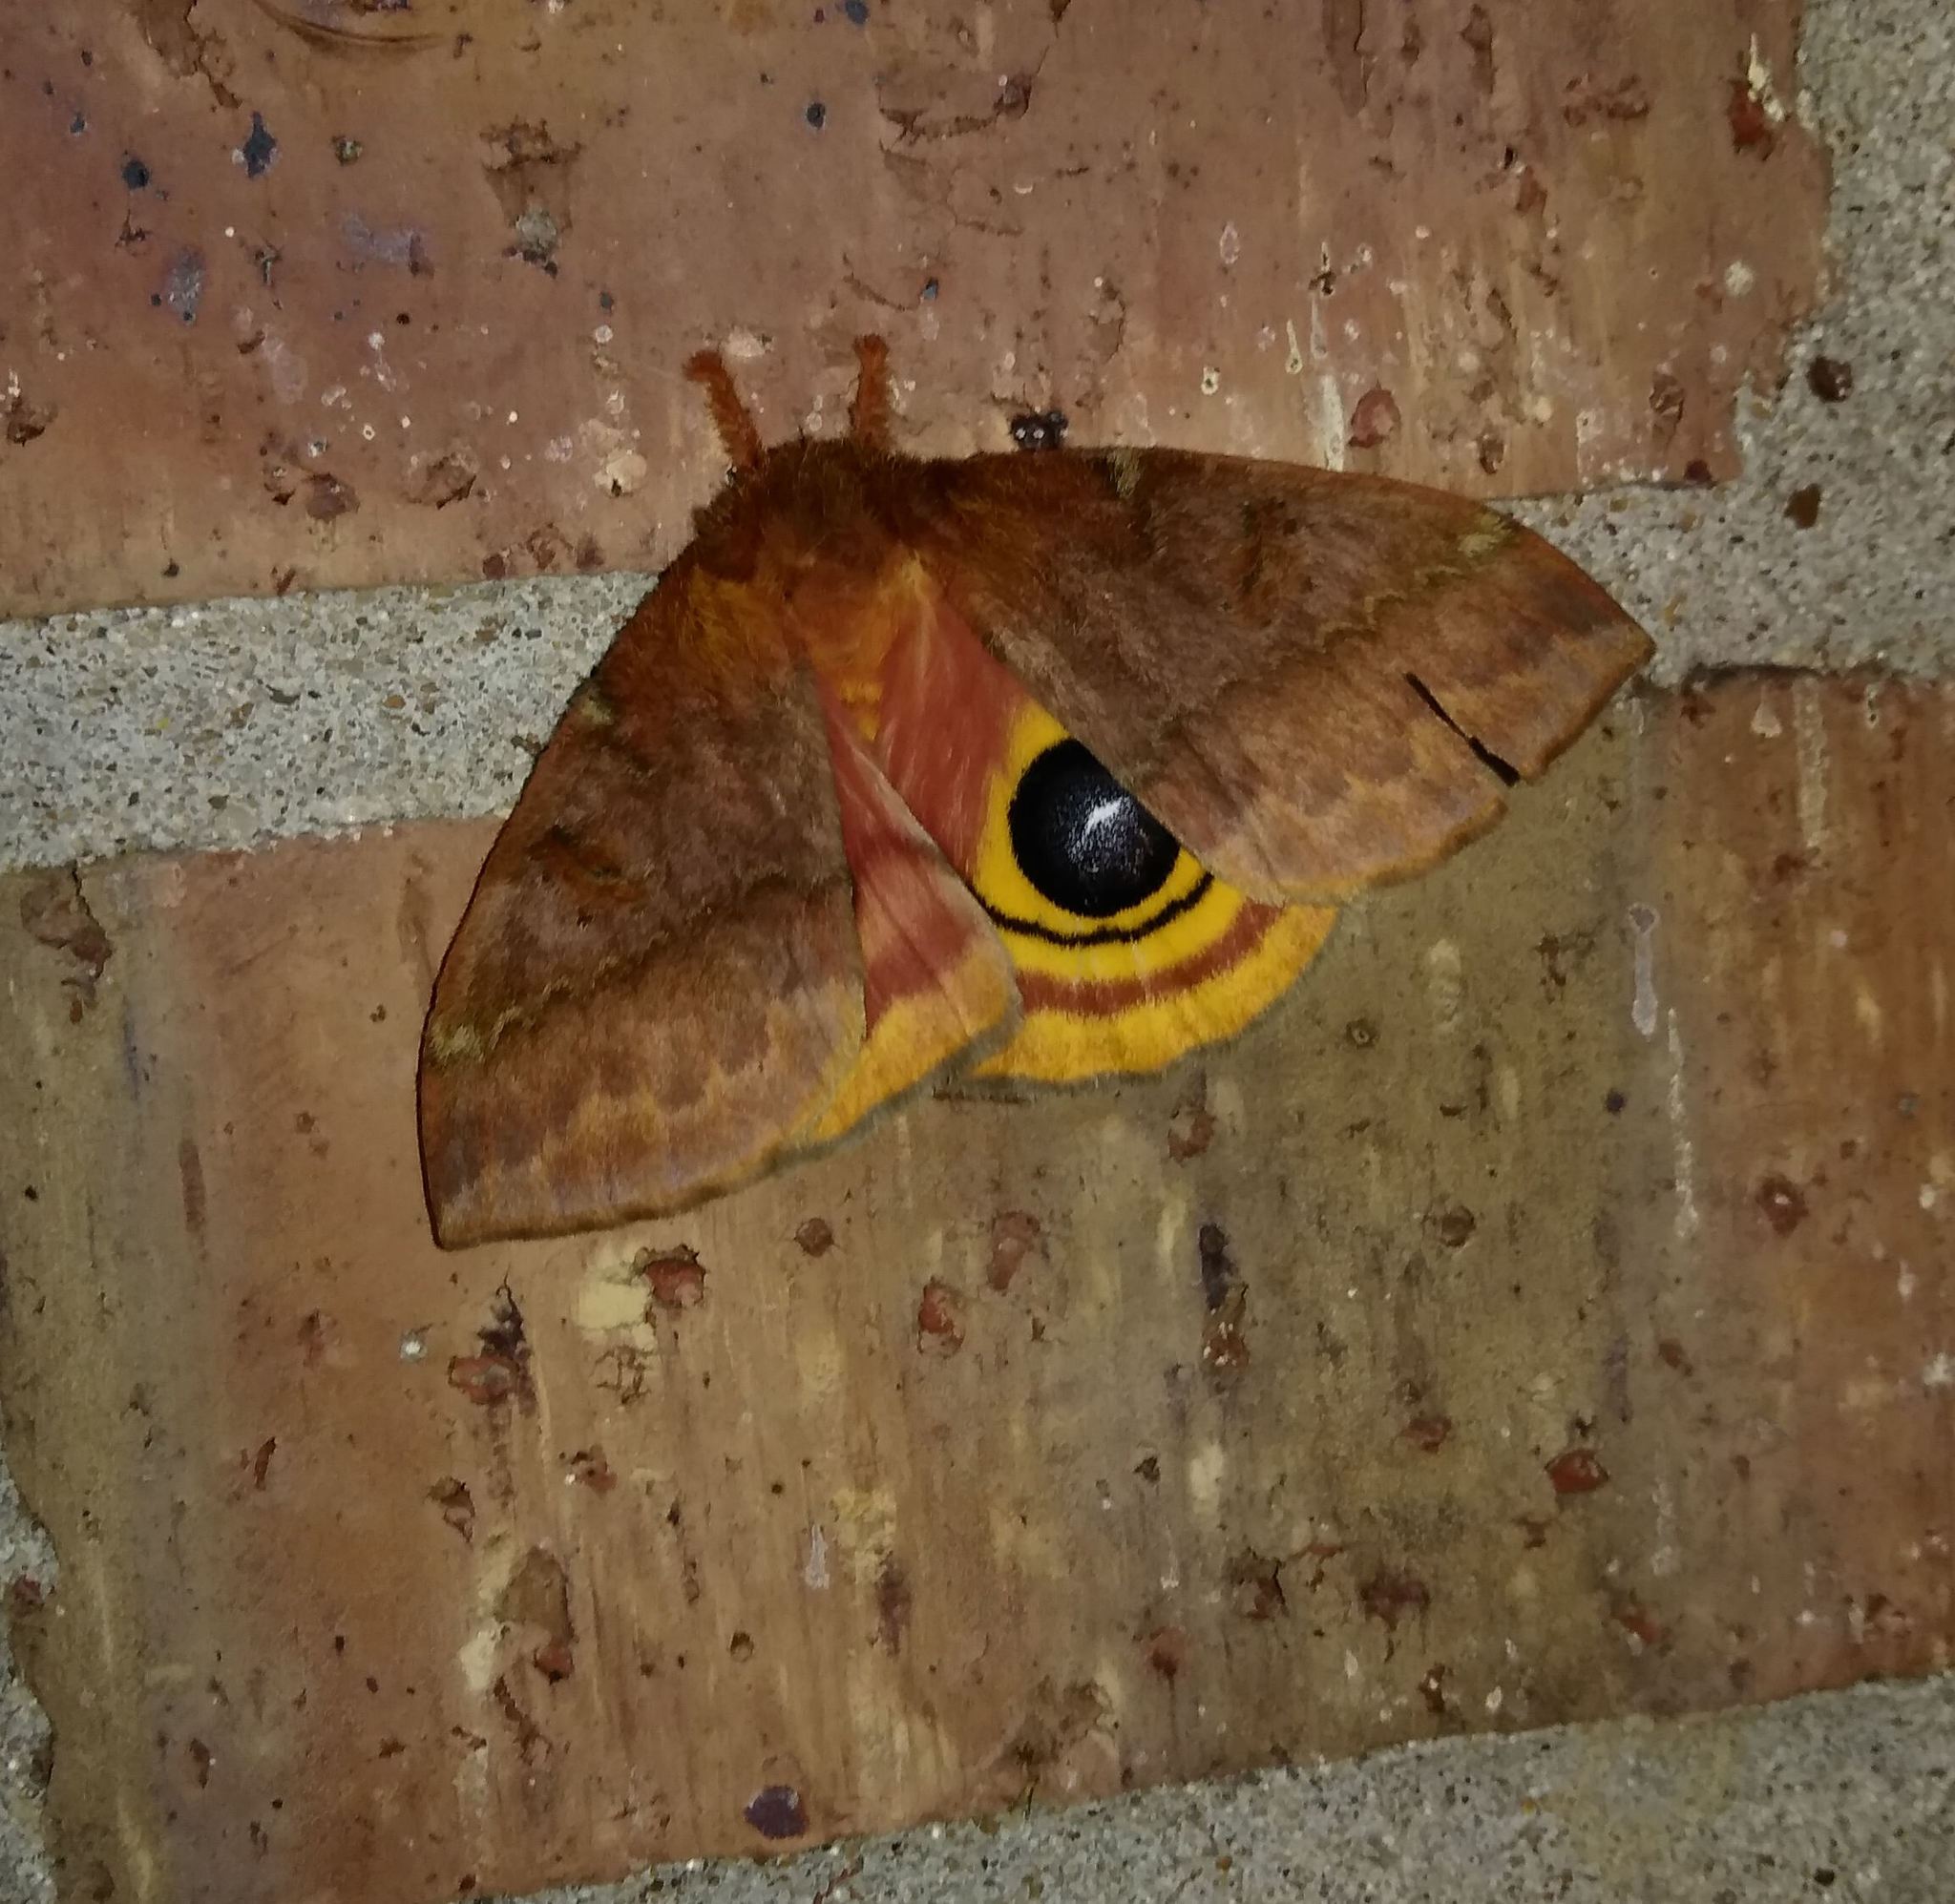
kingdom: Animalia
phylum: Arthropoda
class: Insecta
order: Lepidoptera
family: Saturniidae
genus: Automeris
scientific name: Automeris io
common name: Io moth
